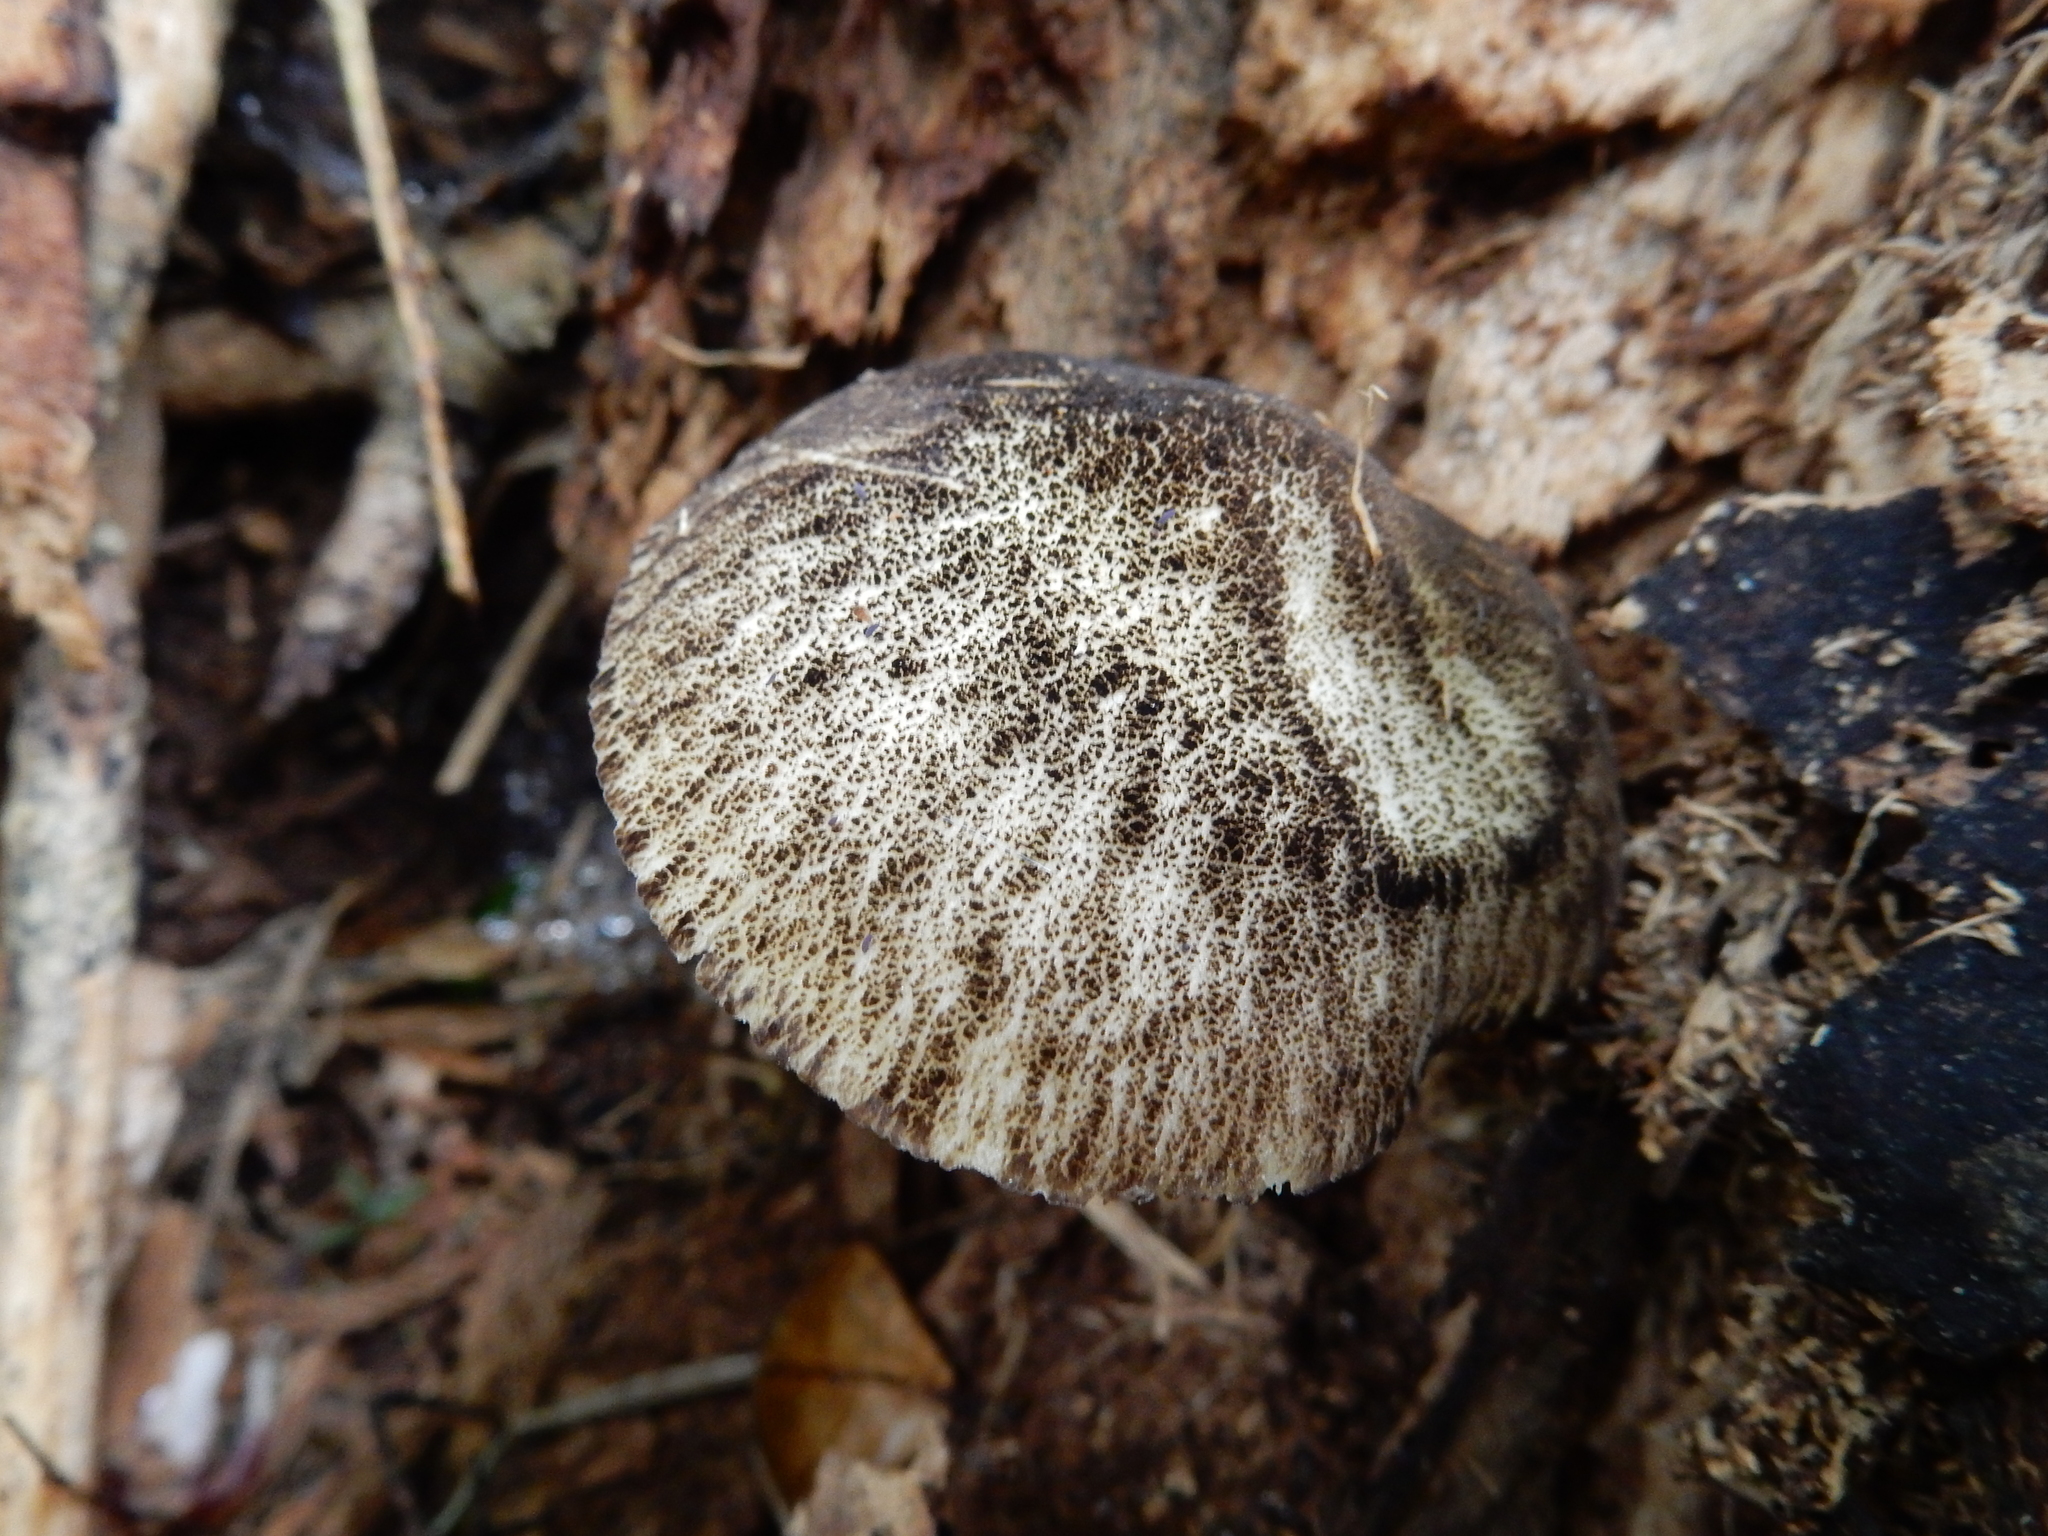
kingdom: Fungi
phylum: Basidiomycota
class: Agaricomycetes
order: Agaricales
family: Pluteaceae
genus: Pluteus
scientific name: Pluteus readiarum
